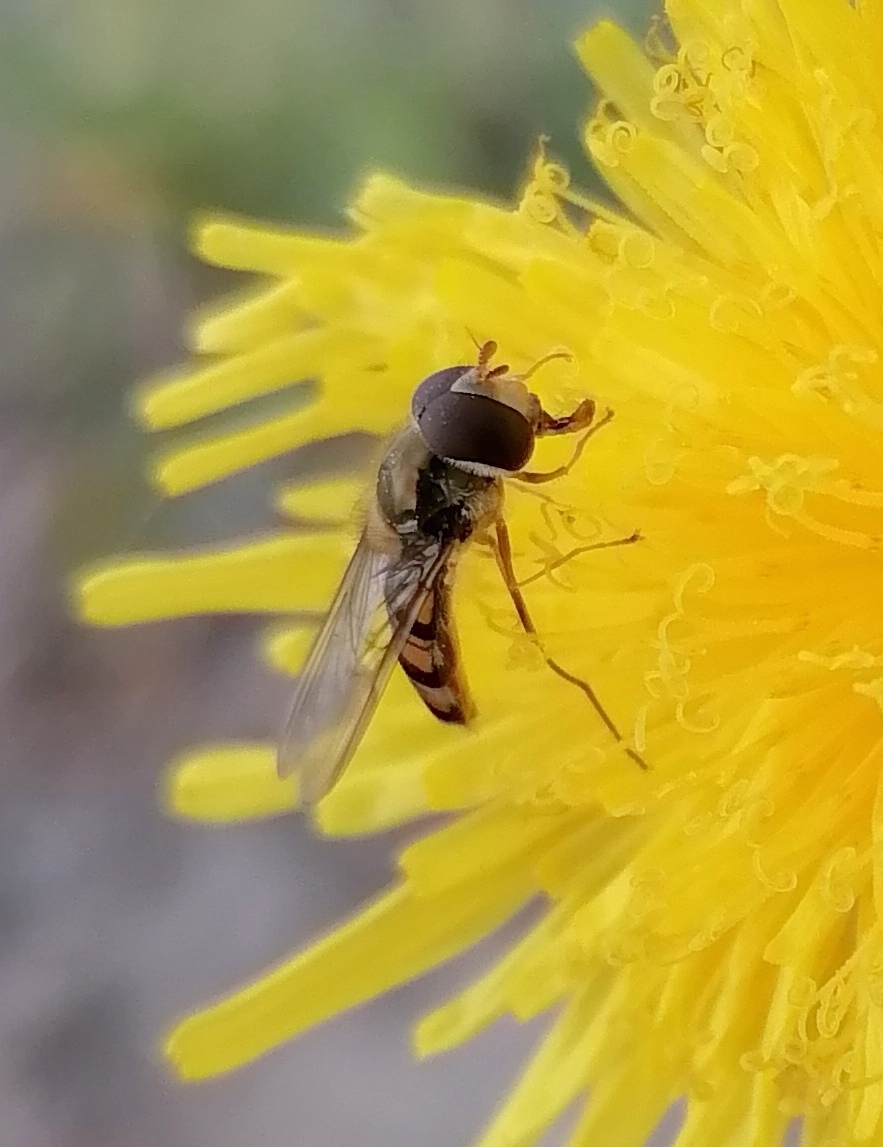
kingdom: Animalia
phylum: Arthropoda
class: Insecta
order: Diptera
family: Syrphidae
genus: Episyrphus
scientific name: Episyrphus balteatus
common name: Marmalade hoverfly
